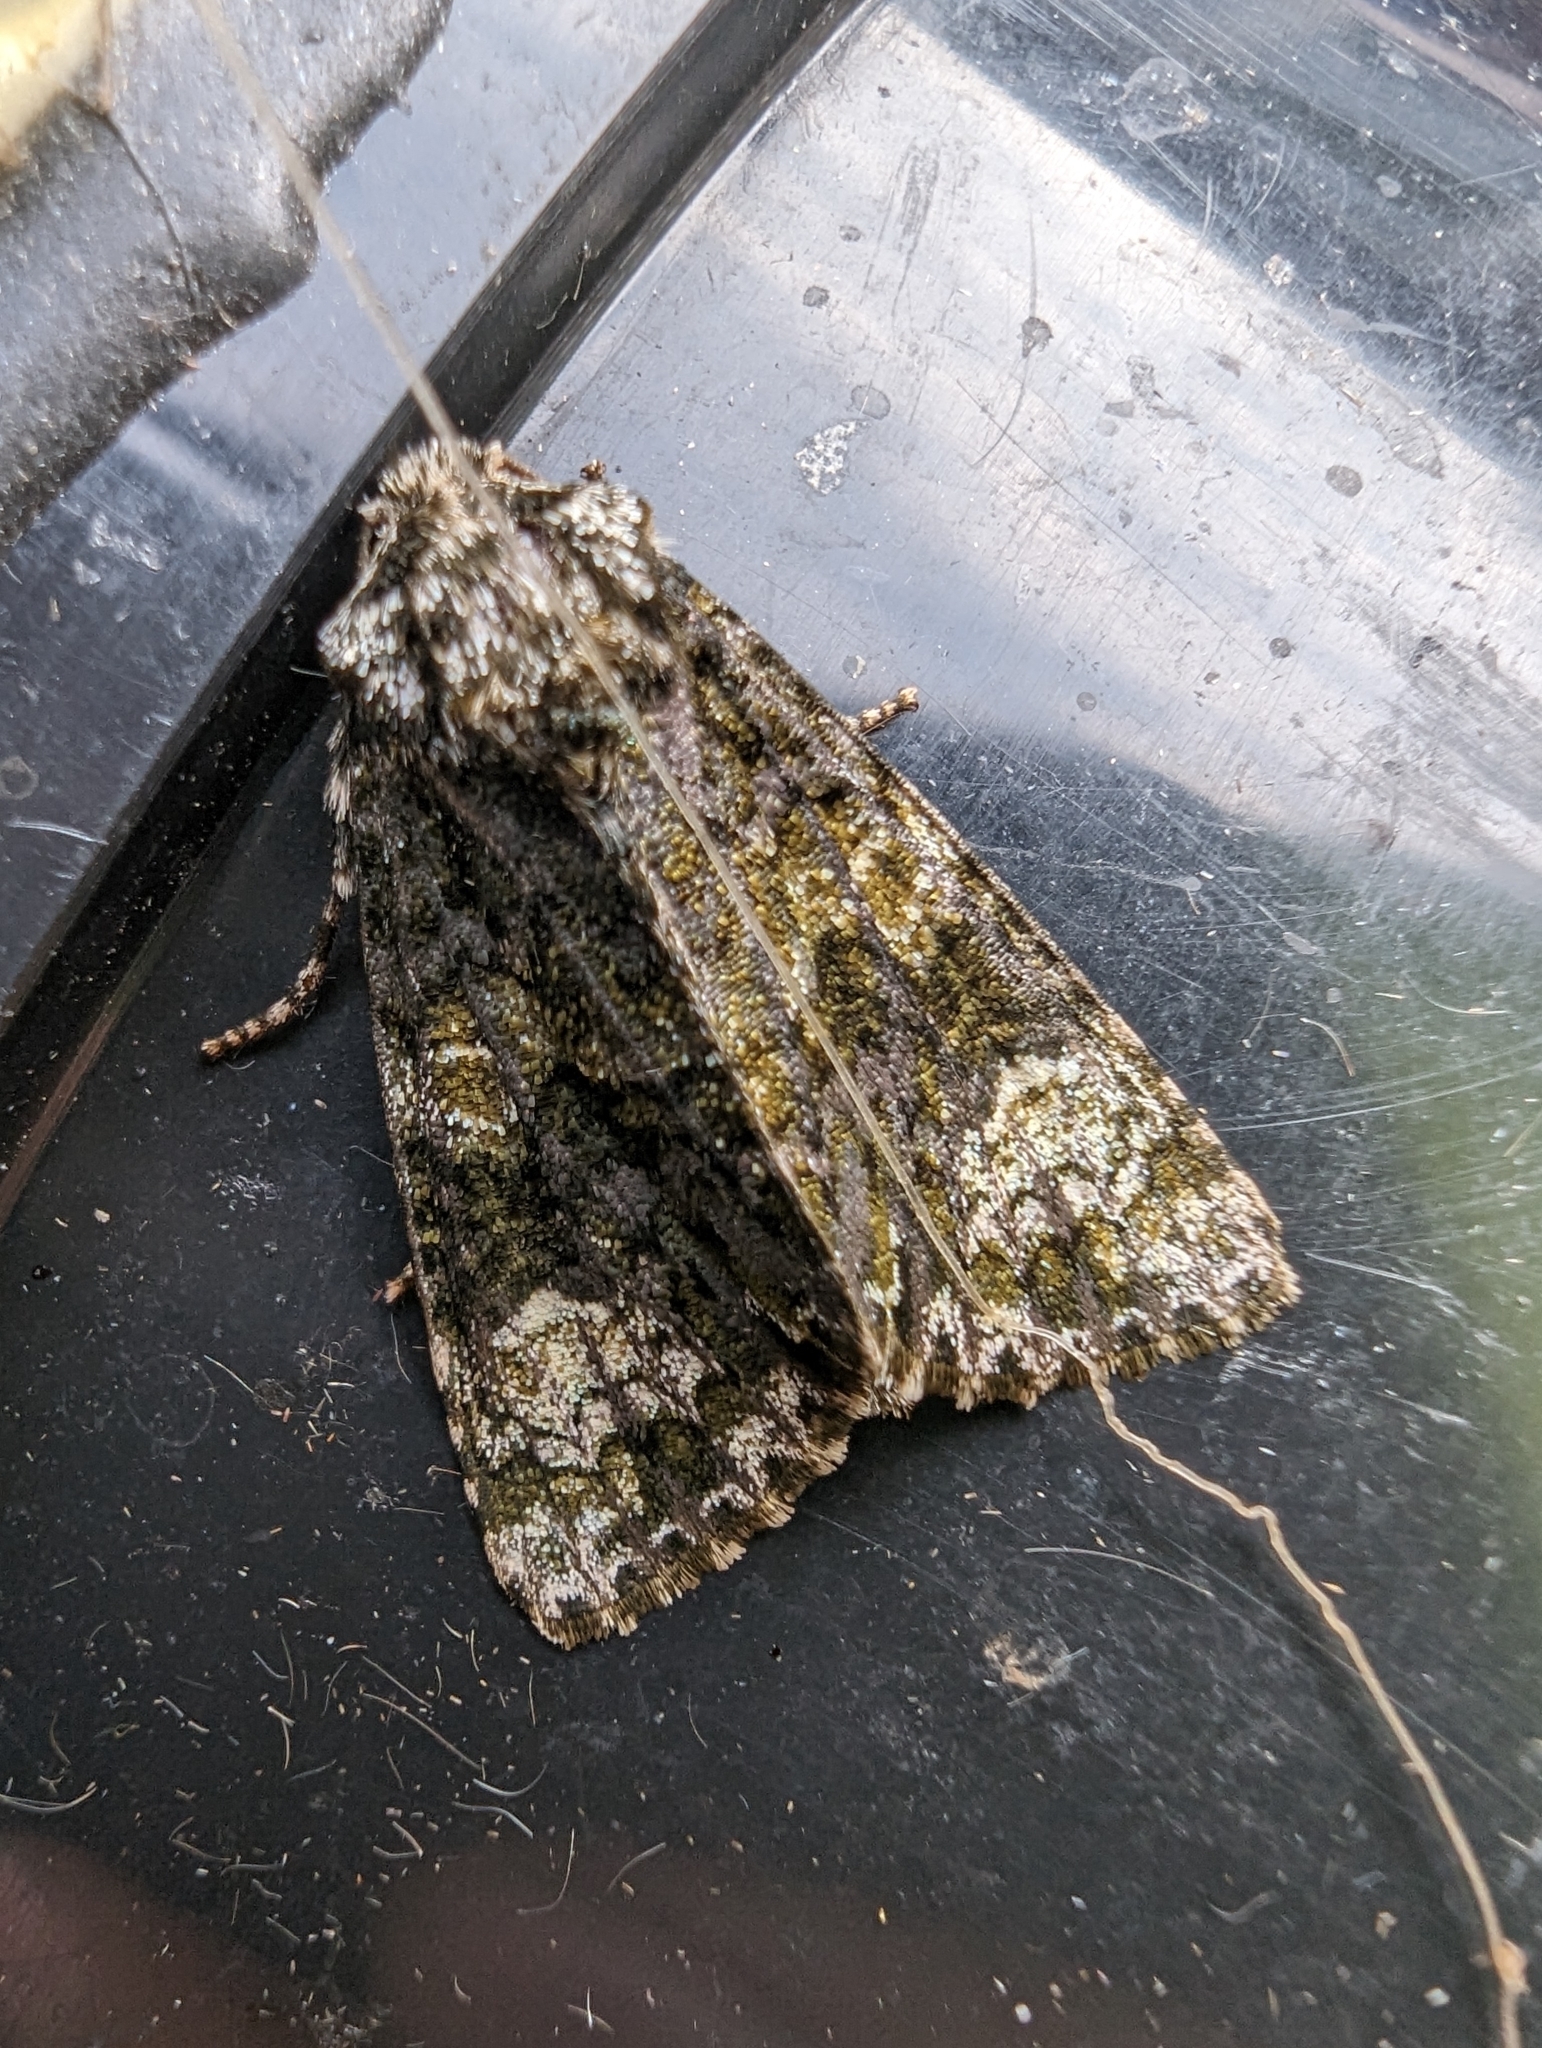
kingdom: Animalia
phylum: Arthropoda
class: Insecta
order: Lepidoptera
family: Noctuidae
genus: Craniophora
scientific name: Craniophora ligustri
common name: Coronet
